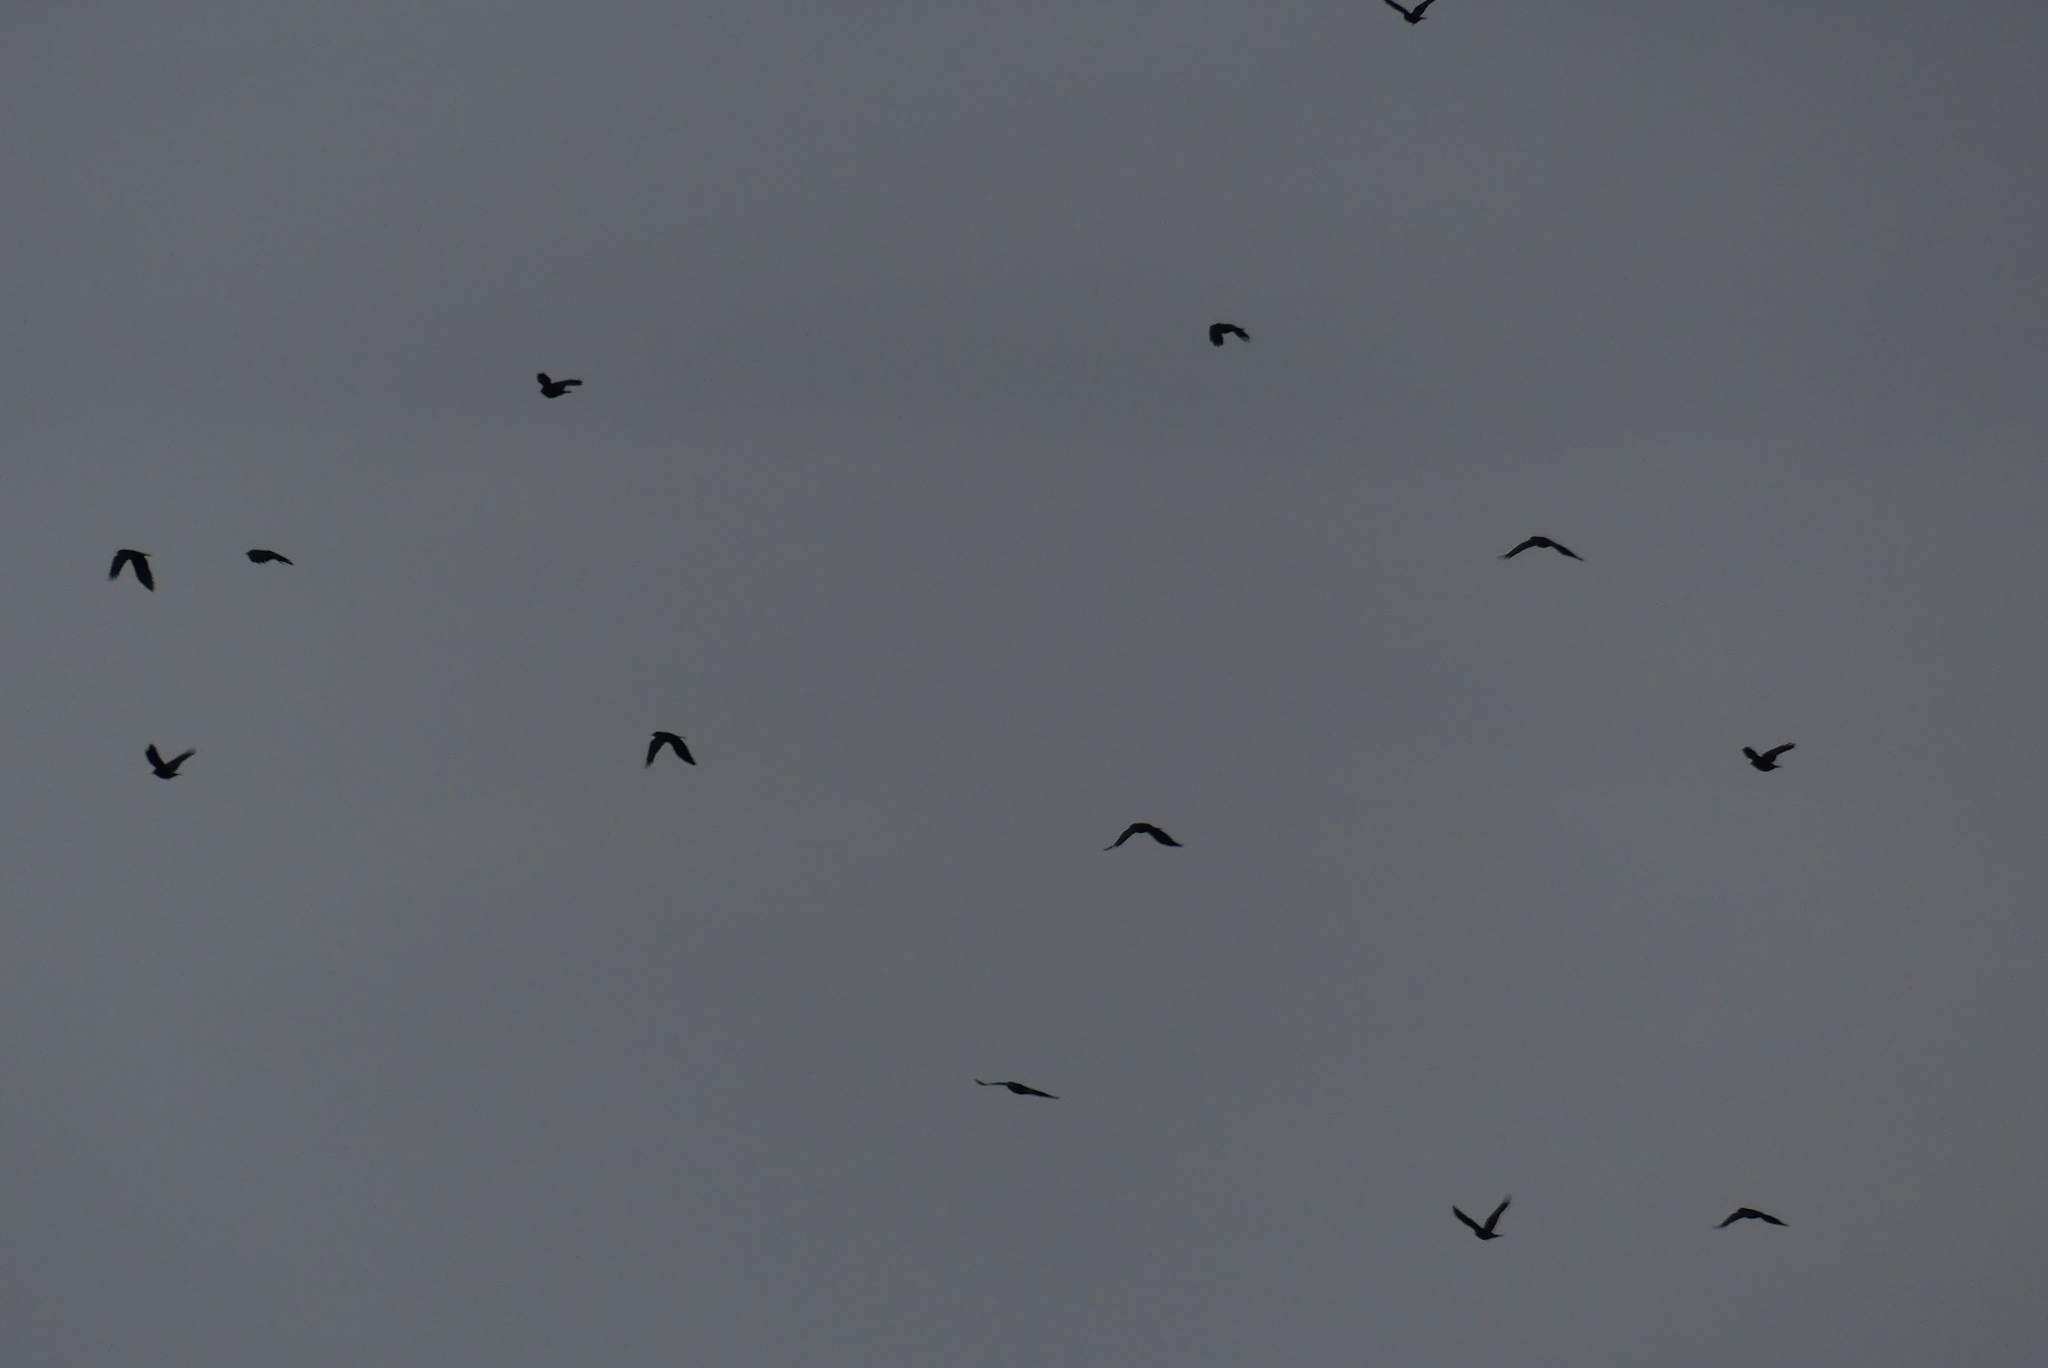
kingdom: Animalia
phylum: Chordata
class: Aves
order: Passeriformes
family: Corvidae
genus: Corvus
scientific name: Corvus brachyrhynchos
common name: American crow
